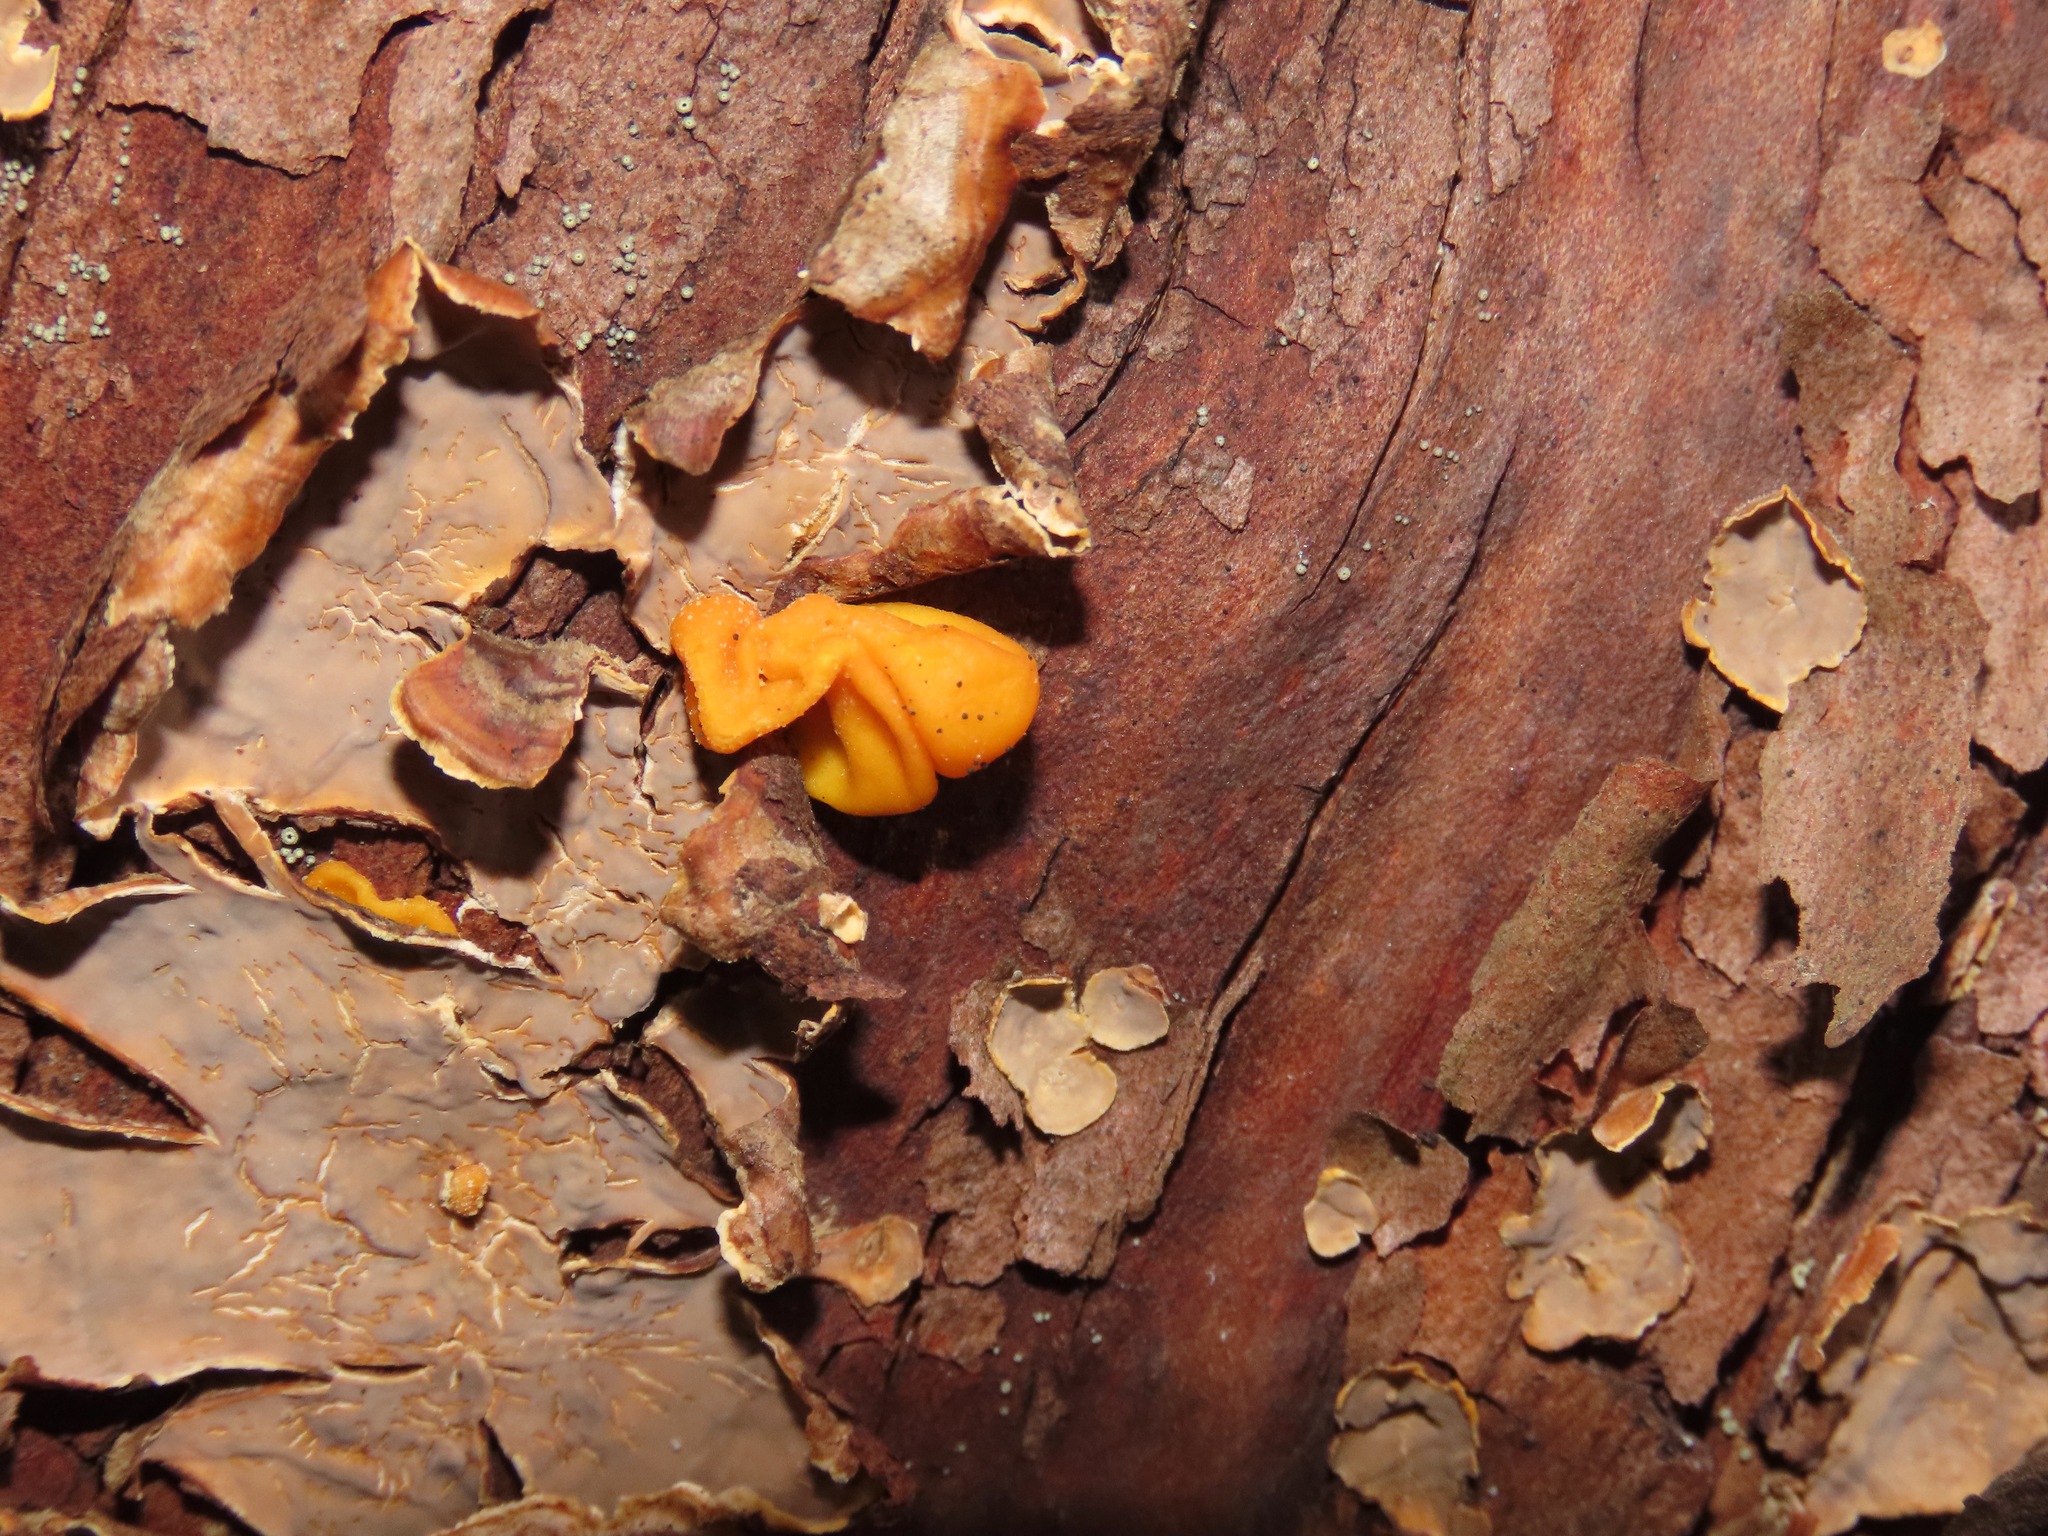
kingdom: Fungi
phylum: Basidiomycota
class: Tremellomycetes
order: Tremellales
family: Naemateliaceae
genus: Naematelia
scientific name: Naematelia aurantia
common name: Golden ear
